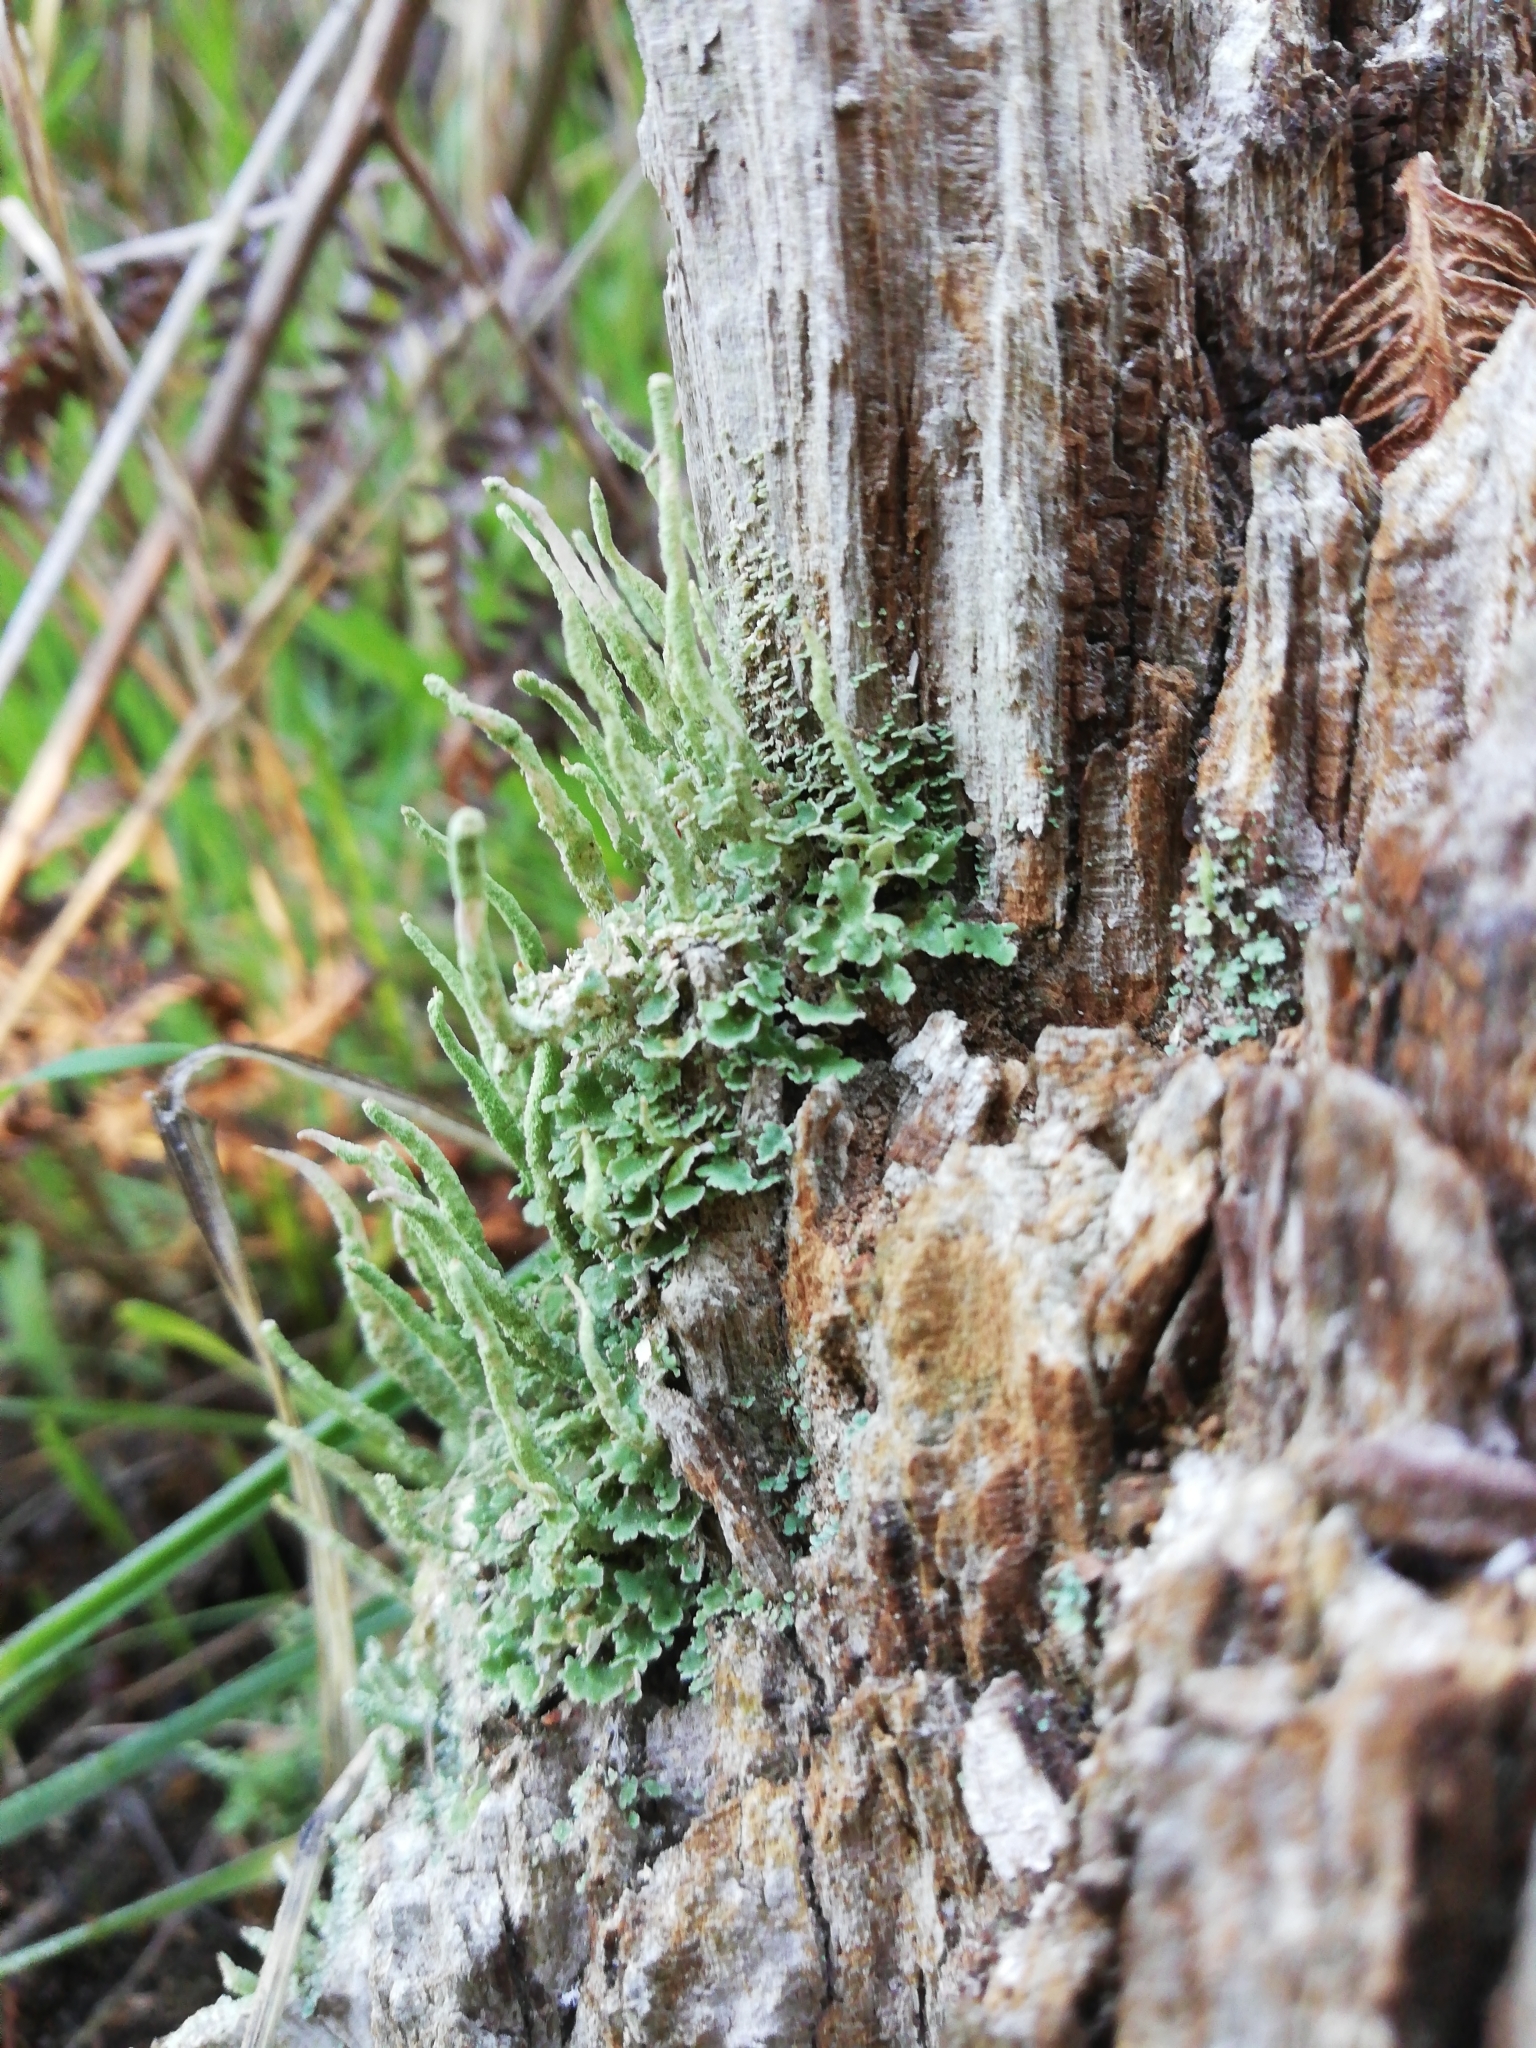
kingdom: Fungi
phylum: Ascomycota
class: Lecanoromycetes
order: Lecanorales
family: Cladoniaceae
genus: Cladonia
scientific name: Cladonia ochrochlora
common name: Smooth-footed powderhorn
